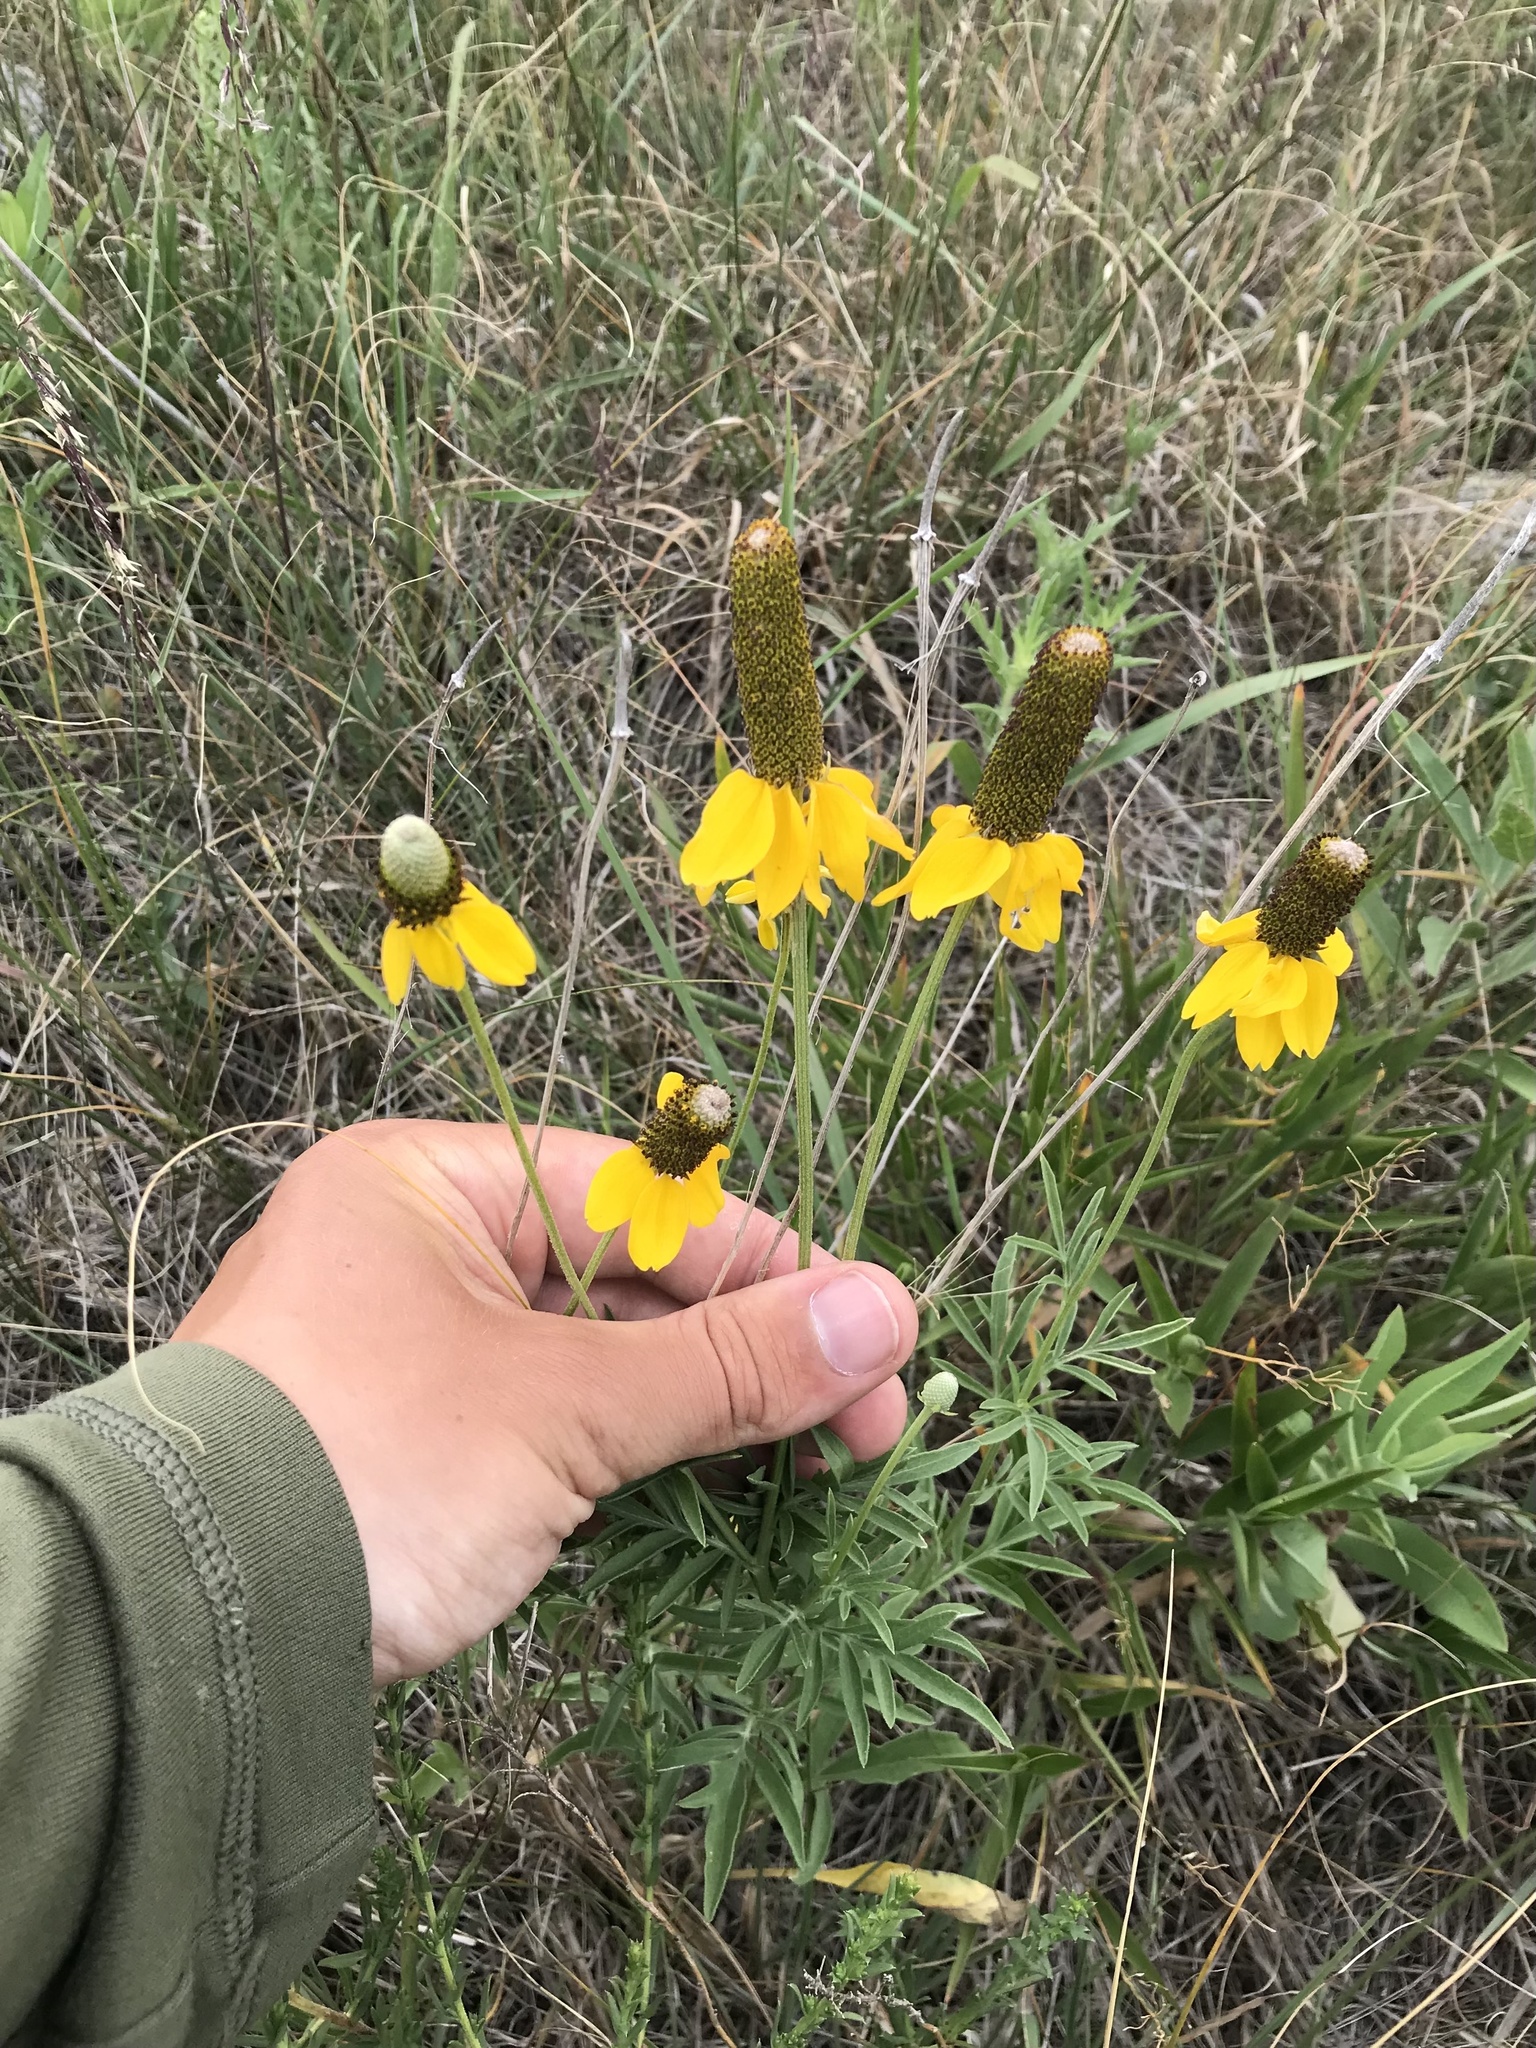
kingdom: Plantae
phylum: Tracheophyta
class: Magnoliopsida
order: Asterales
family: Asteraceae
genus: Ratibida
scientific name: Ratibida columnifera
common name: Prairie coneflower
